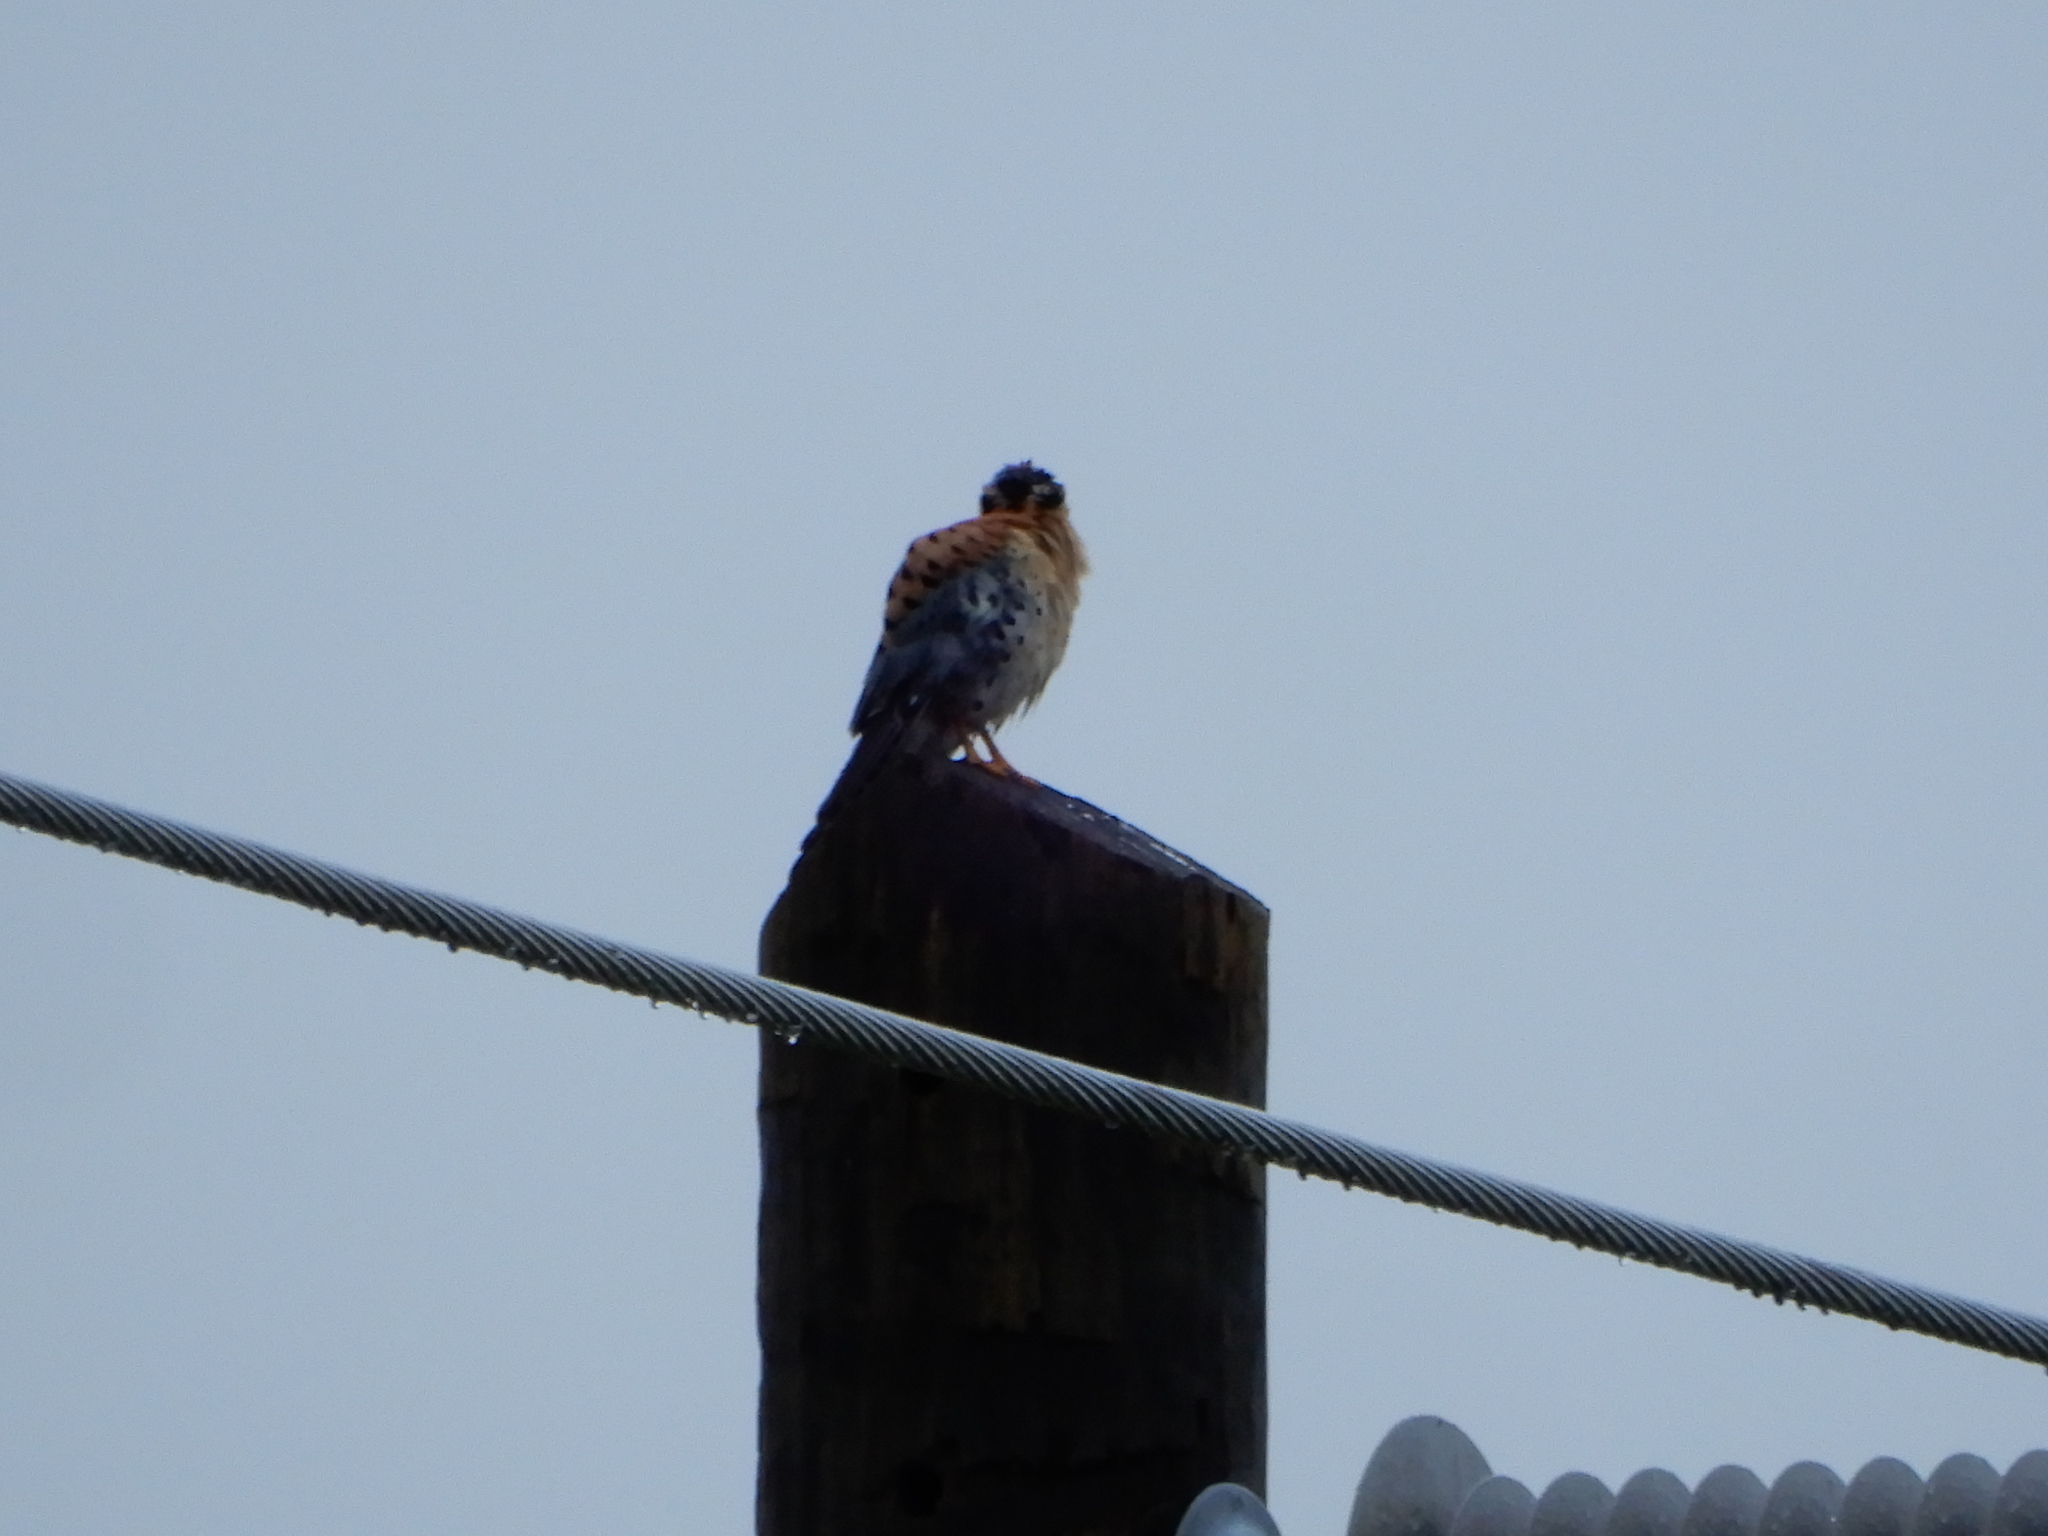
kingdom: Animalia
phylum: Chordata
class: Aves
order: Falconiformes
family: Falconidae
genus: Falco
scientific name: Falco sparverius
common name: American kestrel
